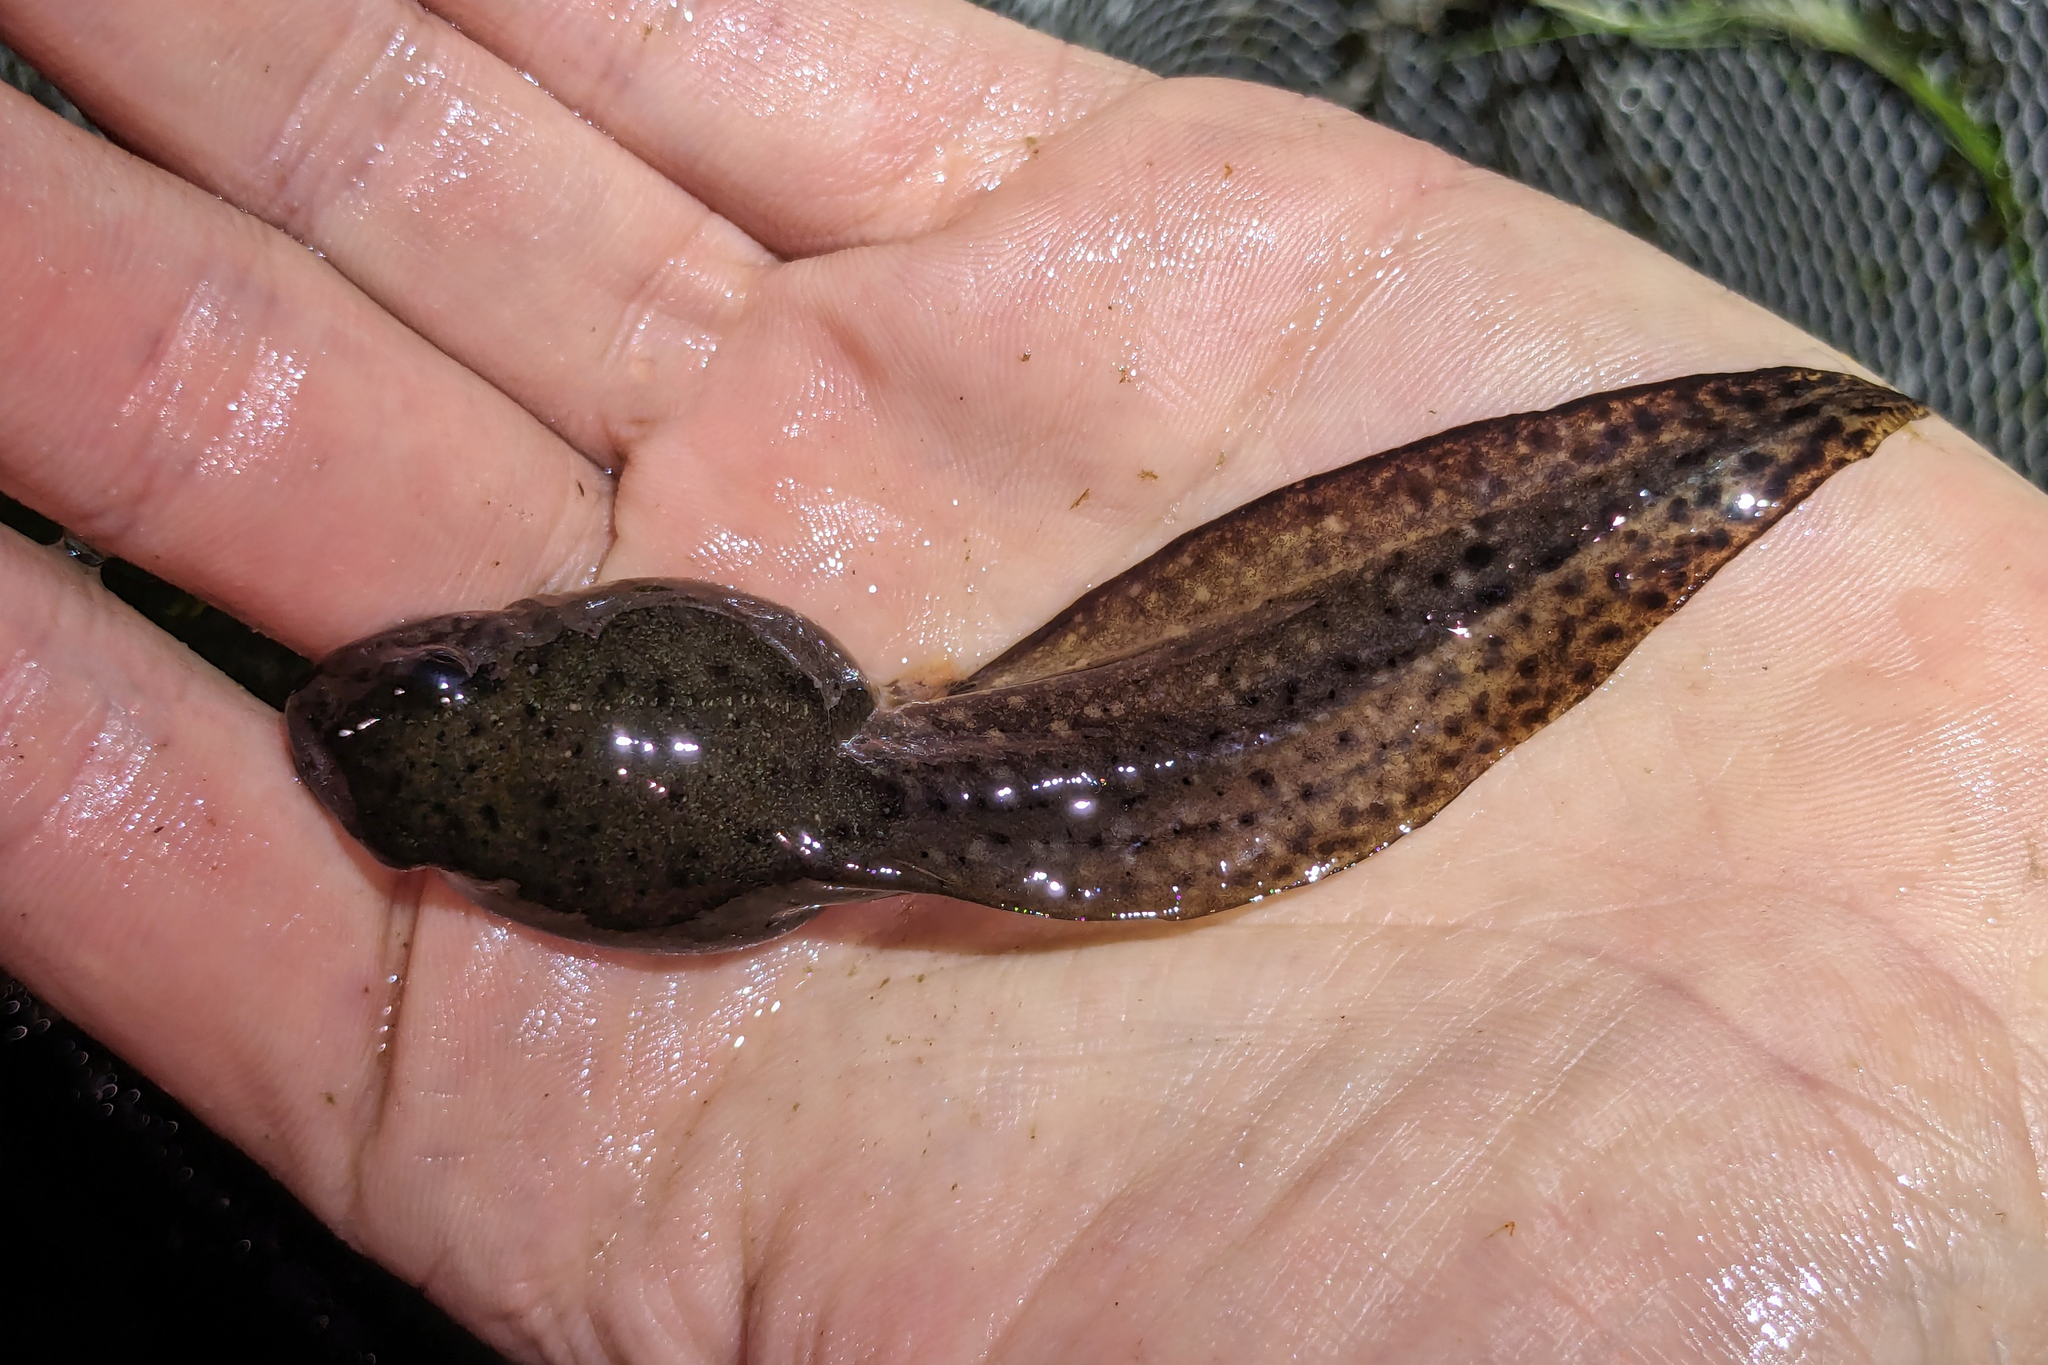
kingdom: Animalia
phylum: Chordata
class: Amphibia
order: Anura
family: Ranidae
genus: Lithobates
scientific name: Lithobates grylio
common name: Pig frog
